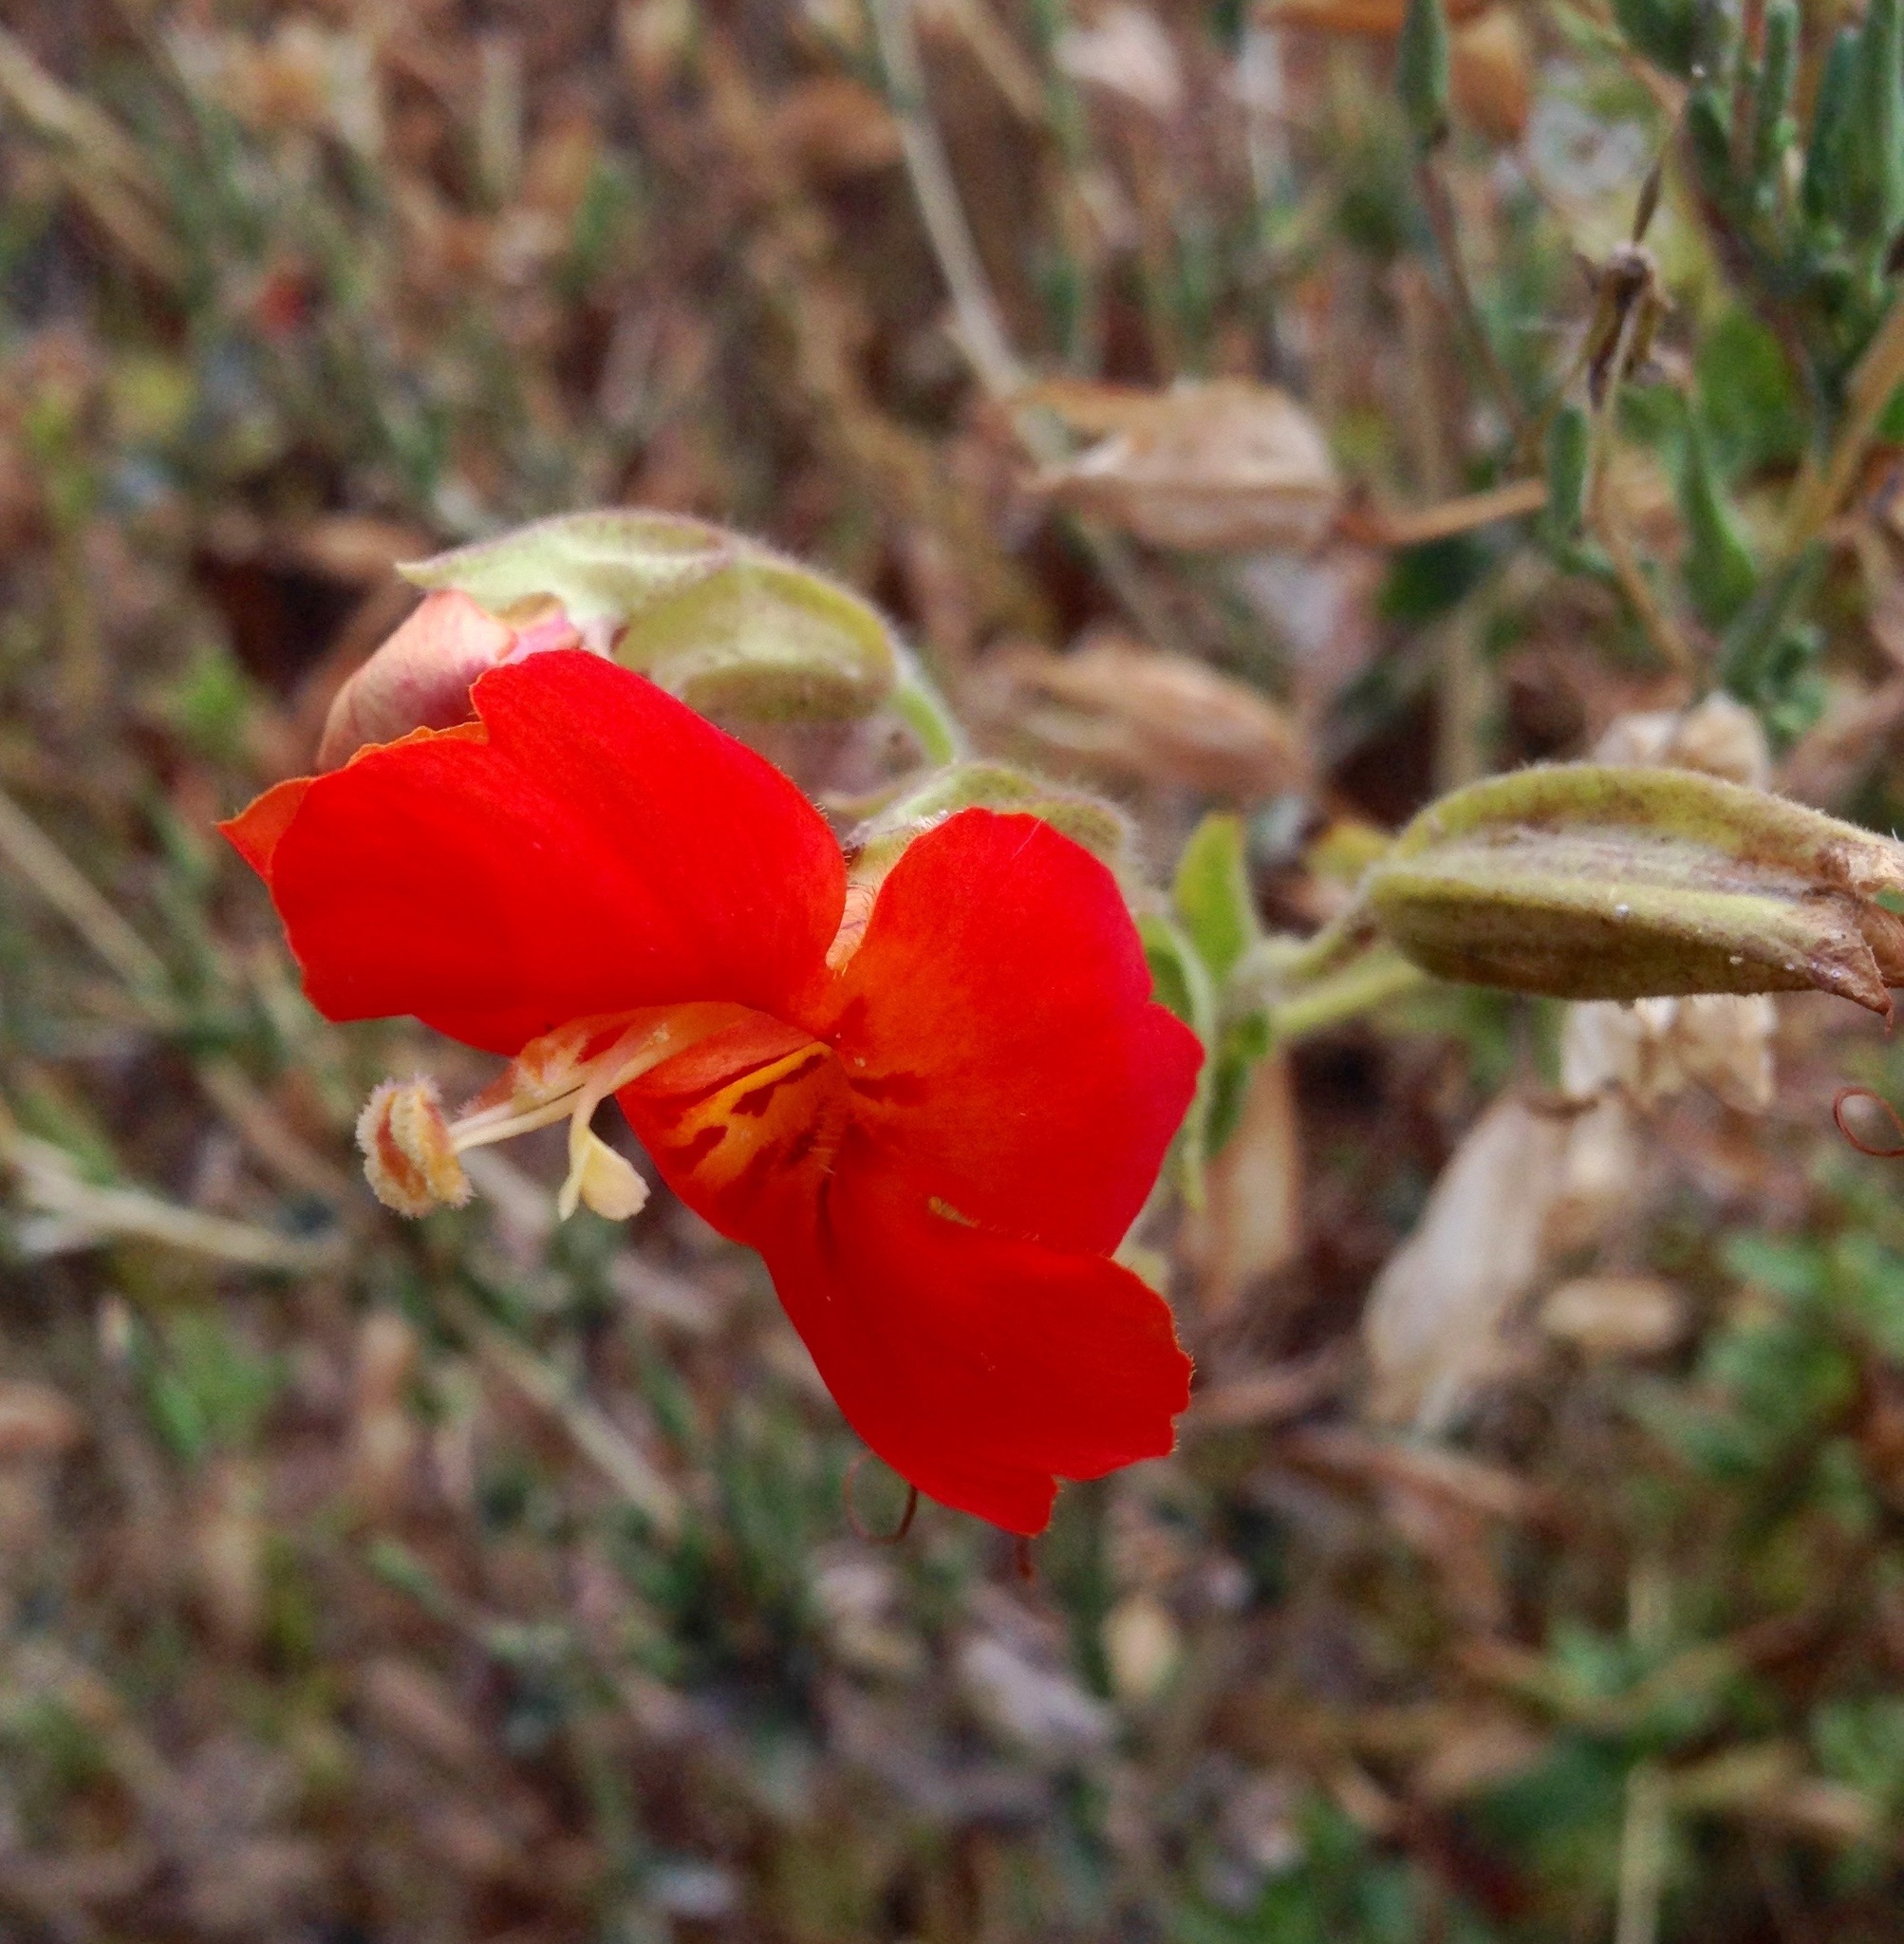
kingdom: Plantae
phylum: Tracheophyta
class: Magnoliopsida
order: Lamiales
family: Phrymaceae
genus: Erythranthe
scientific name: Erythranthe cardinalis
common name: Scarlet monkey-flower
